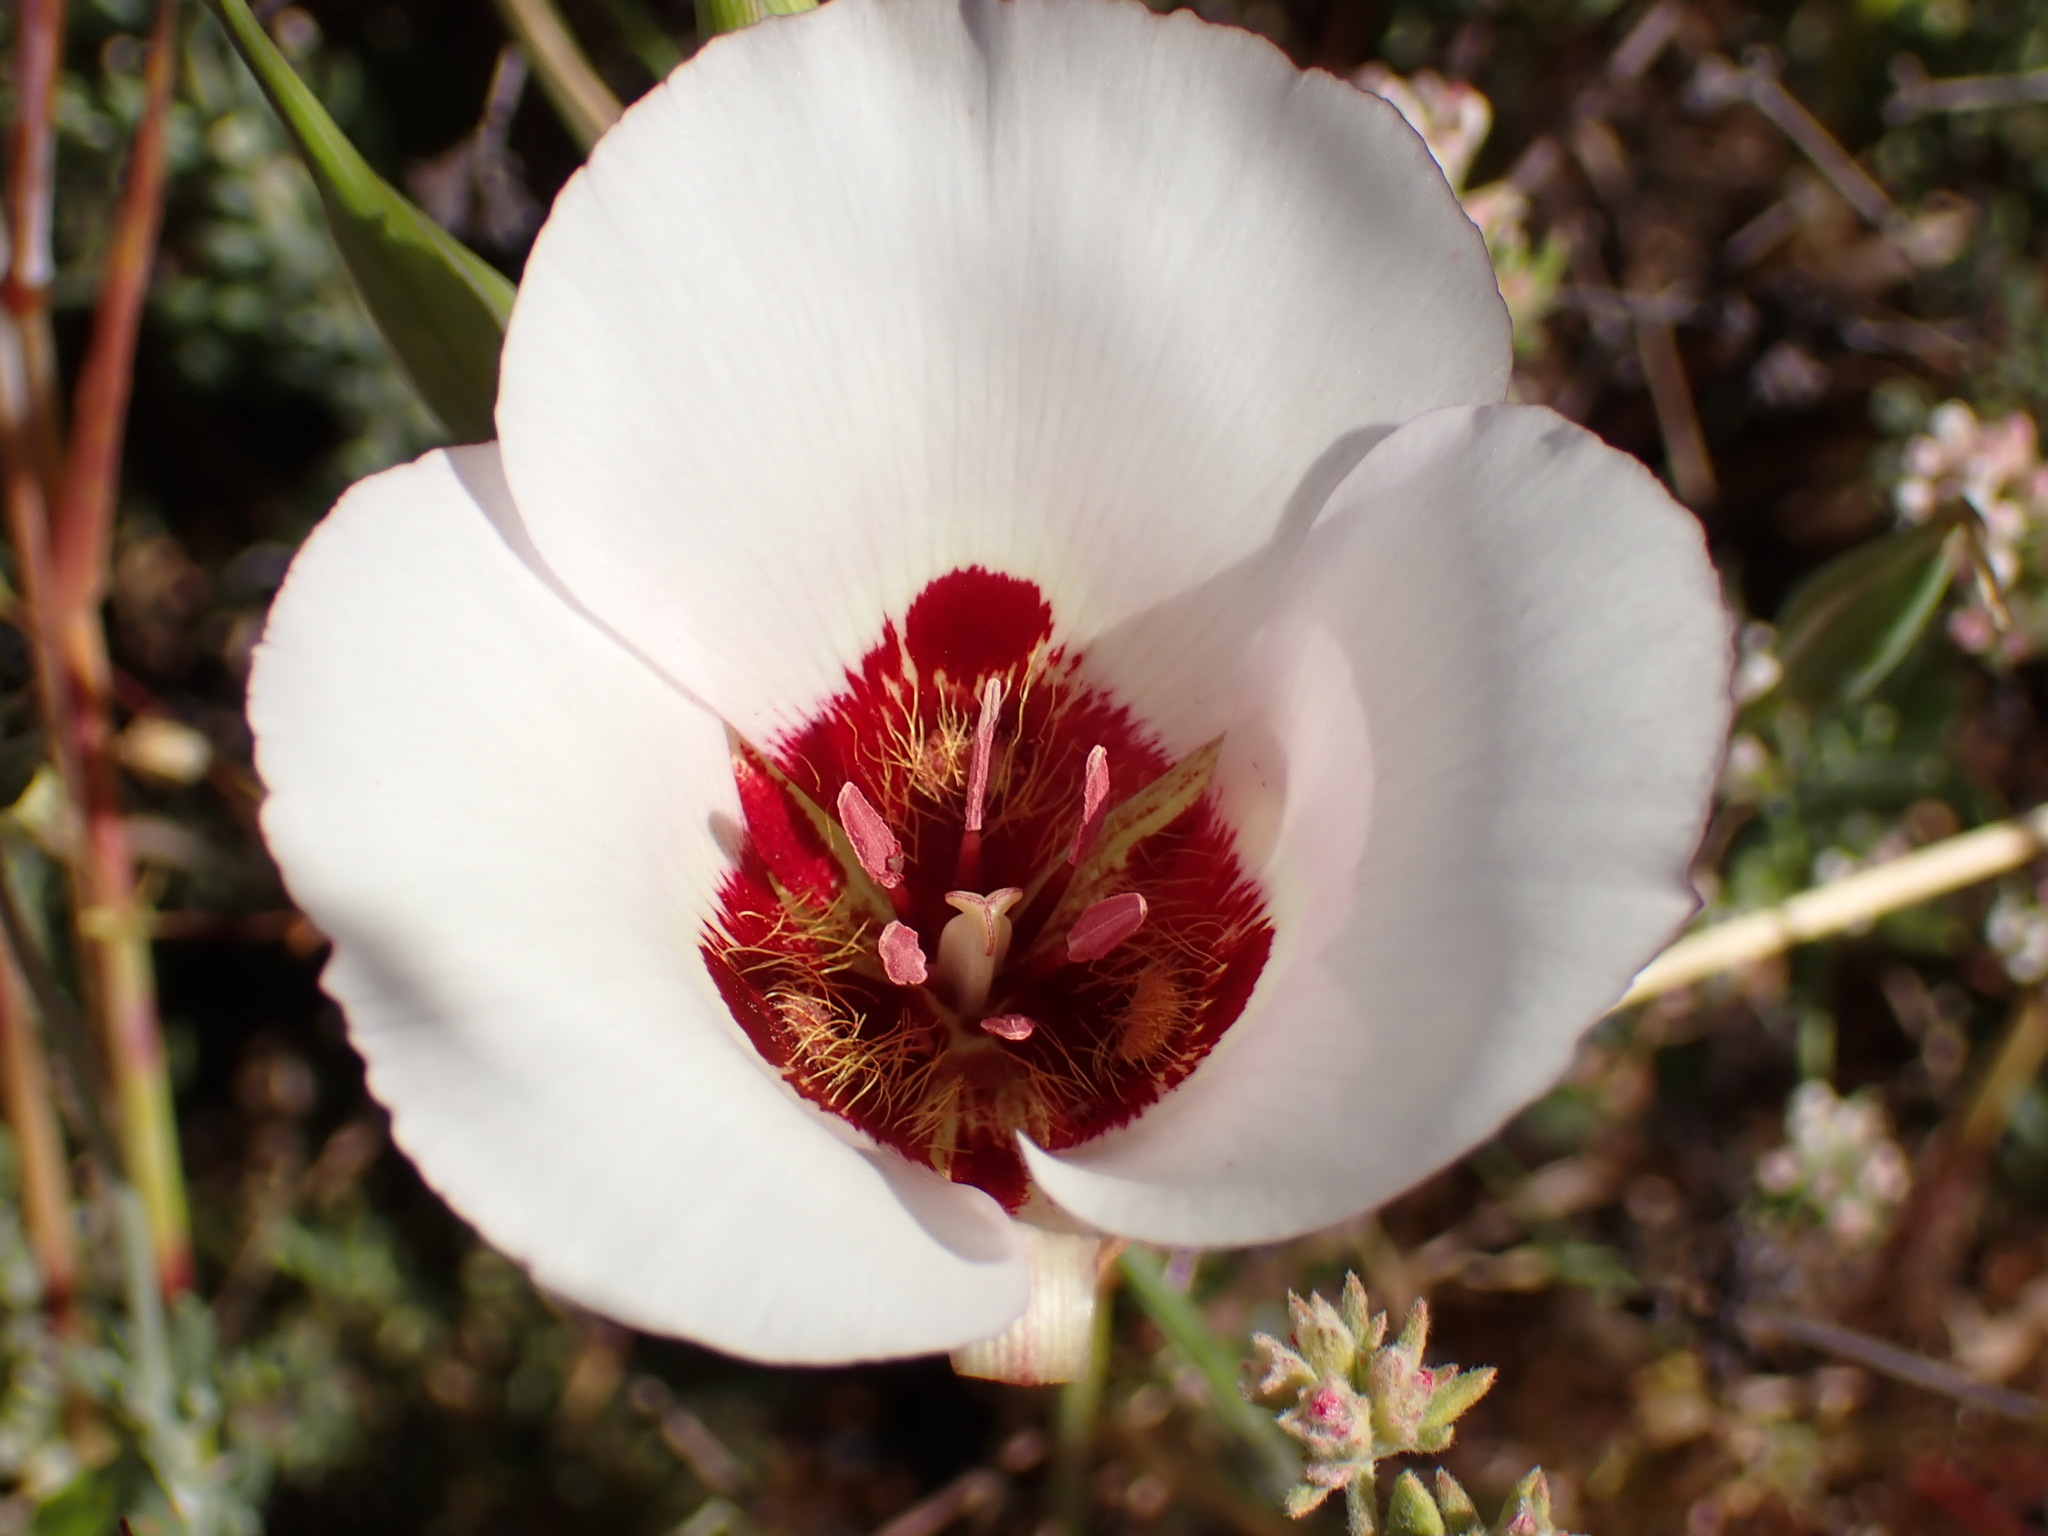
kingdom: Plantae
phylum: Tracheophyta
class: Liliopsida
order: Liliales
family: Liliaceae
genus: Calochortus
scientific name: Calochortus simulans
